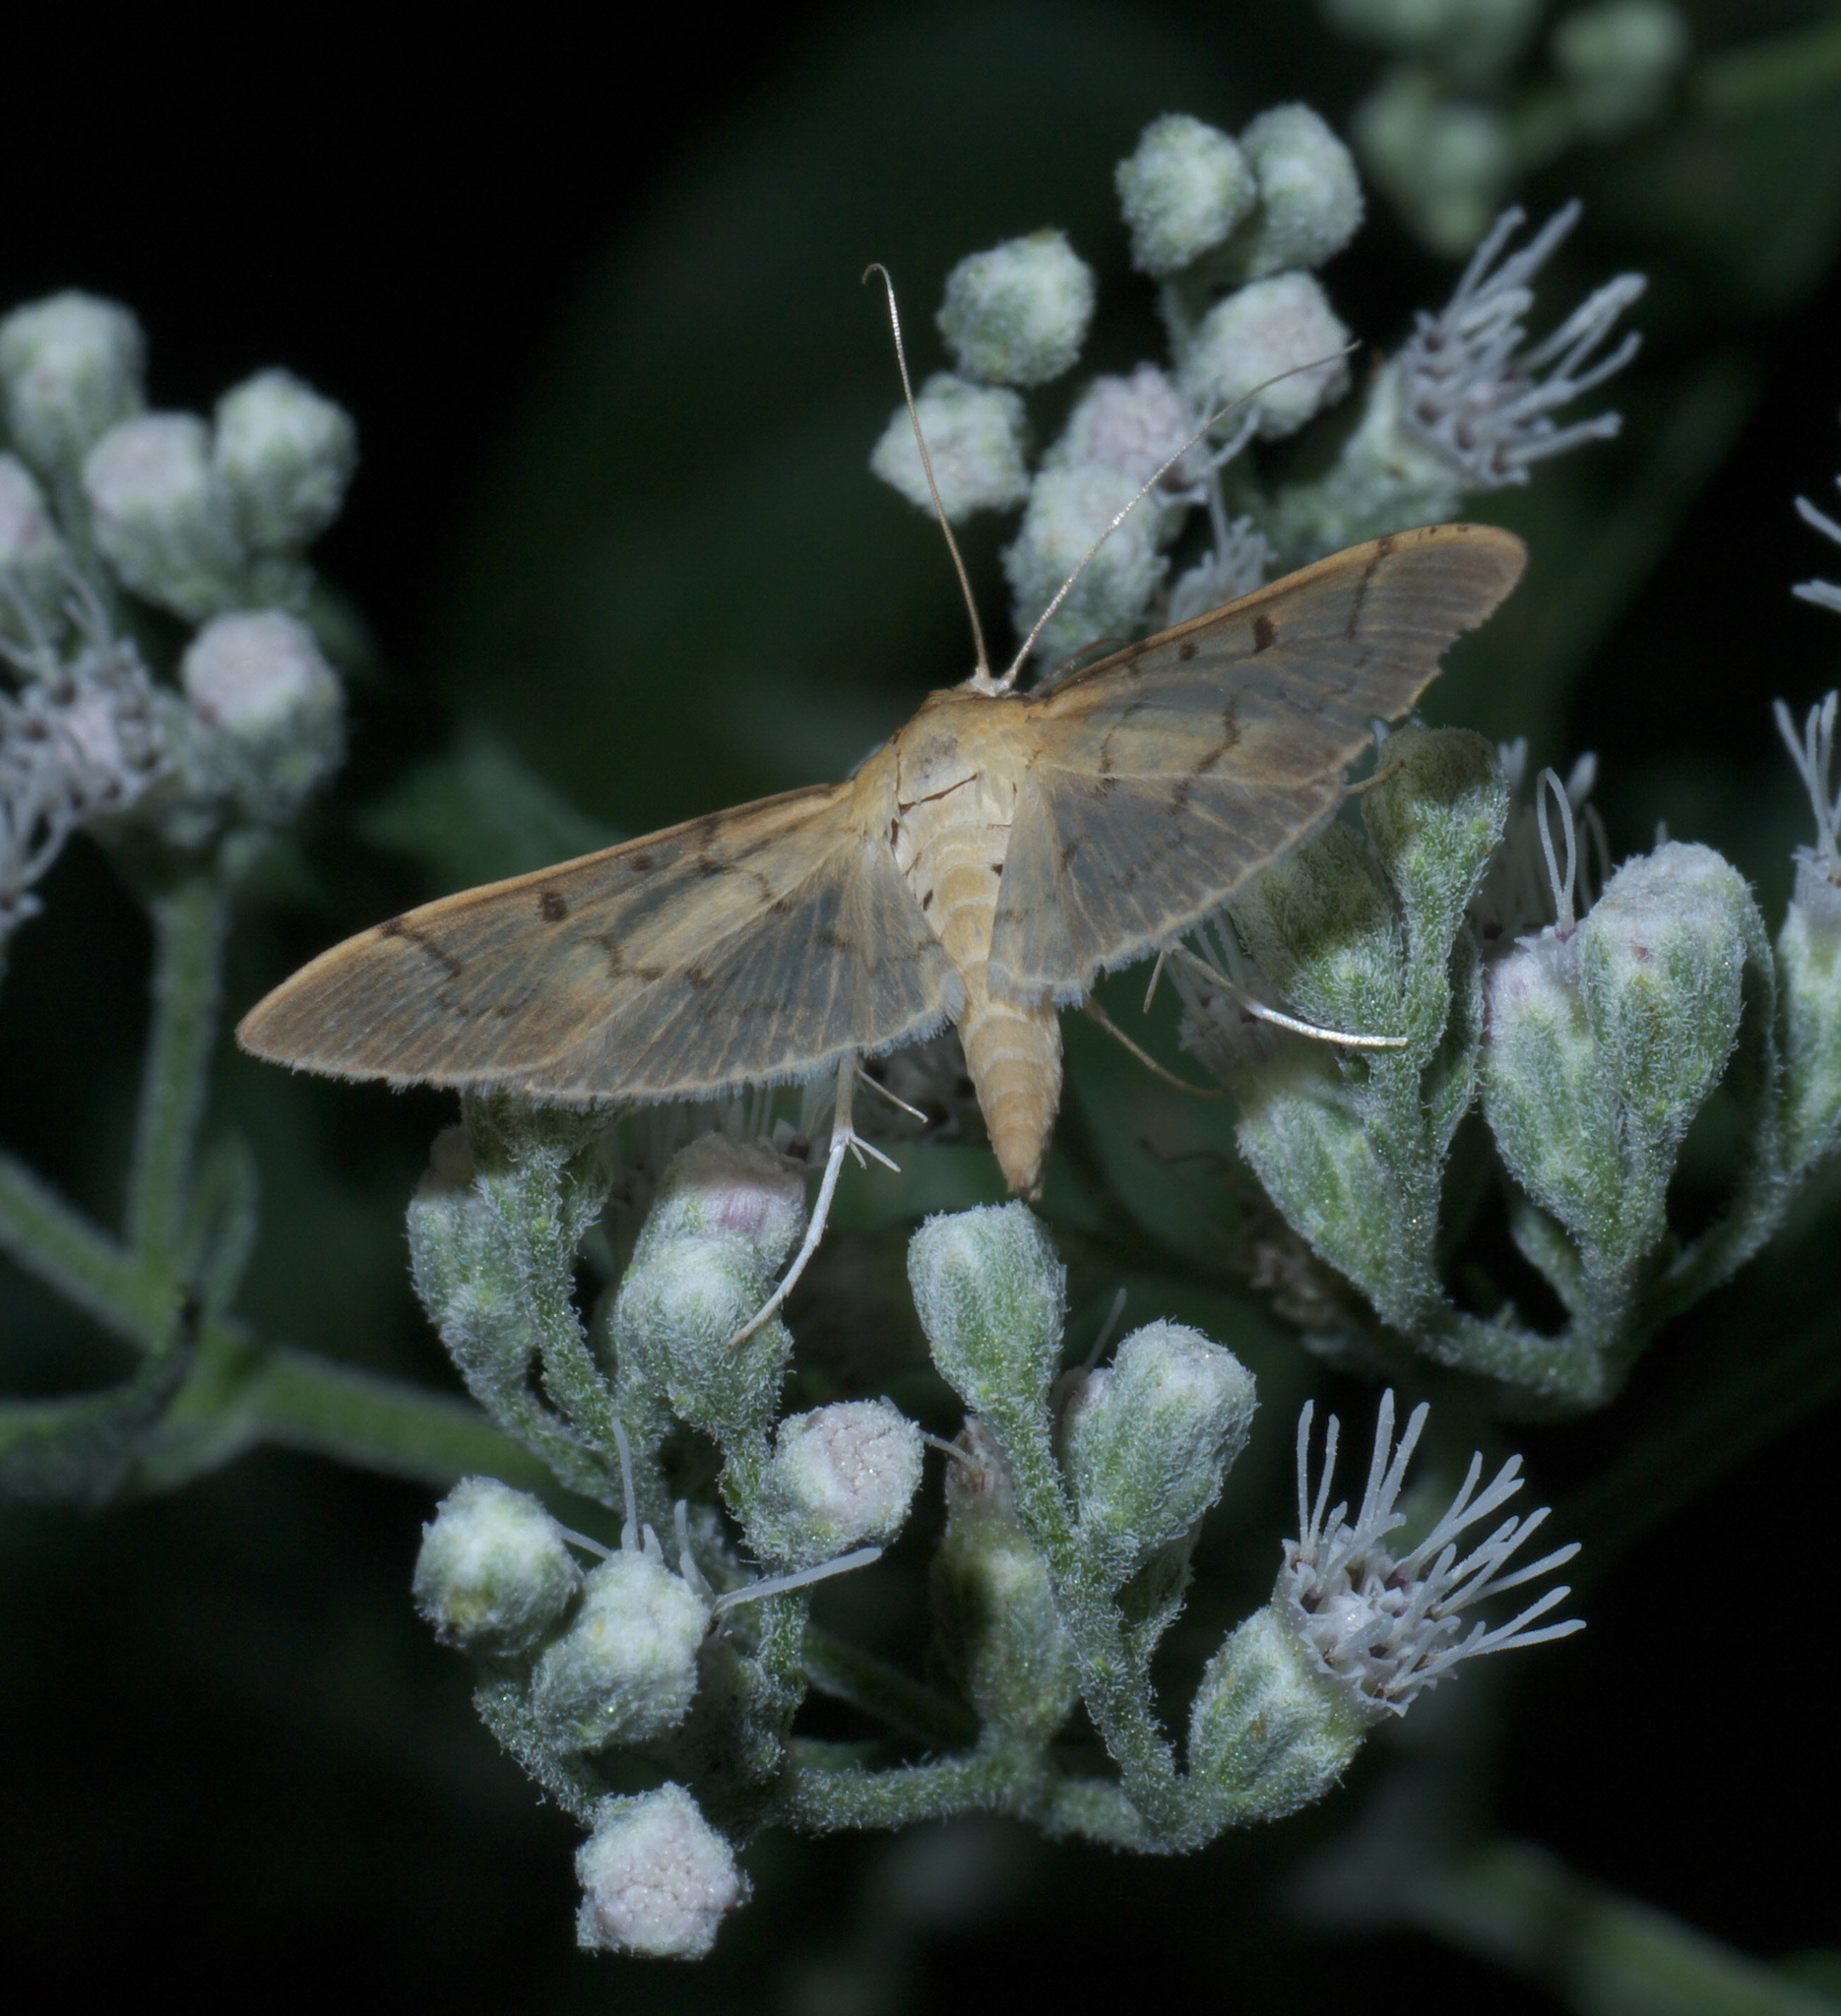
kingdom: Animalia
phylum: Arthropoda
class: Insecta
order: Lepidoptera
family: Crambidae
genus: Herpetogramma
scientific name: Herpetogramma bipunctalis
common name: Southern beet webworm
